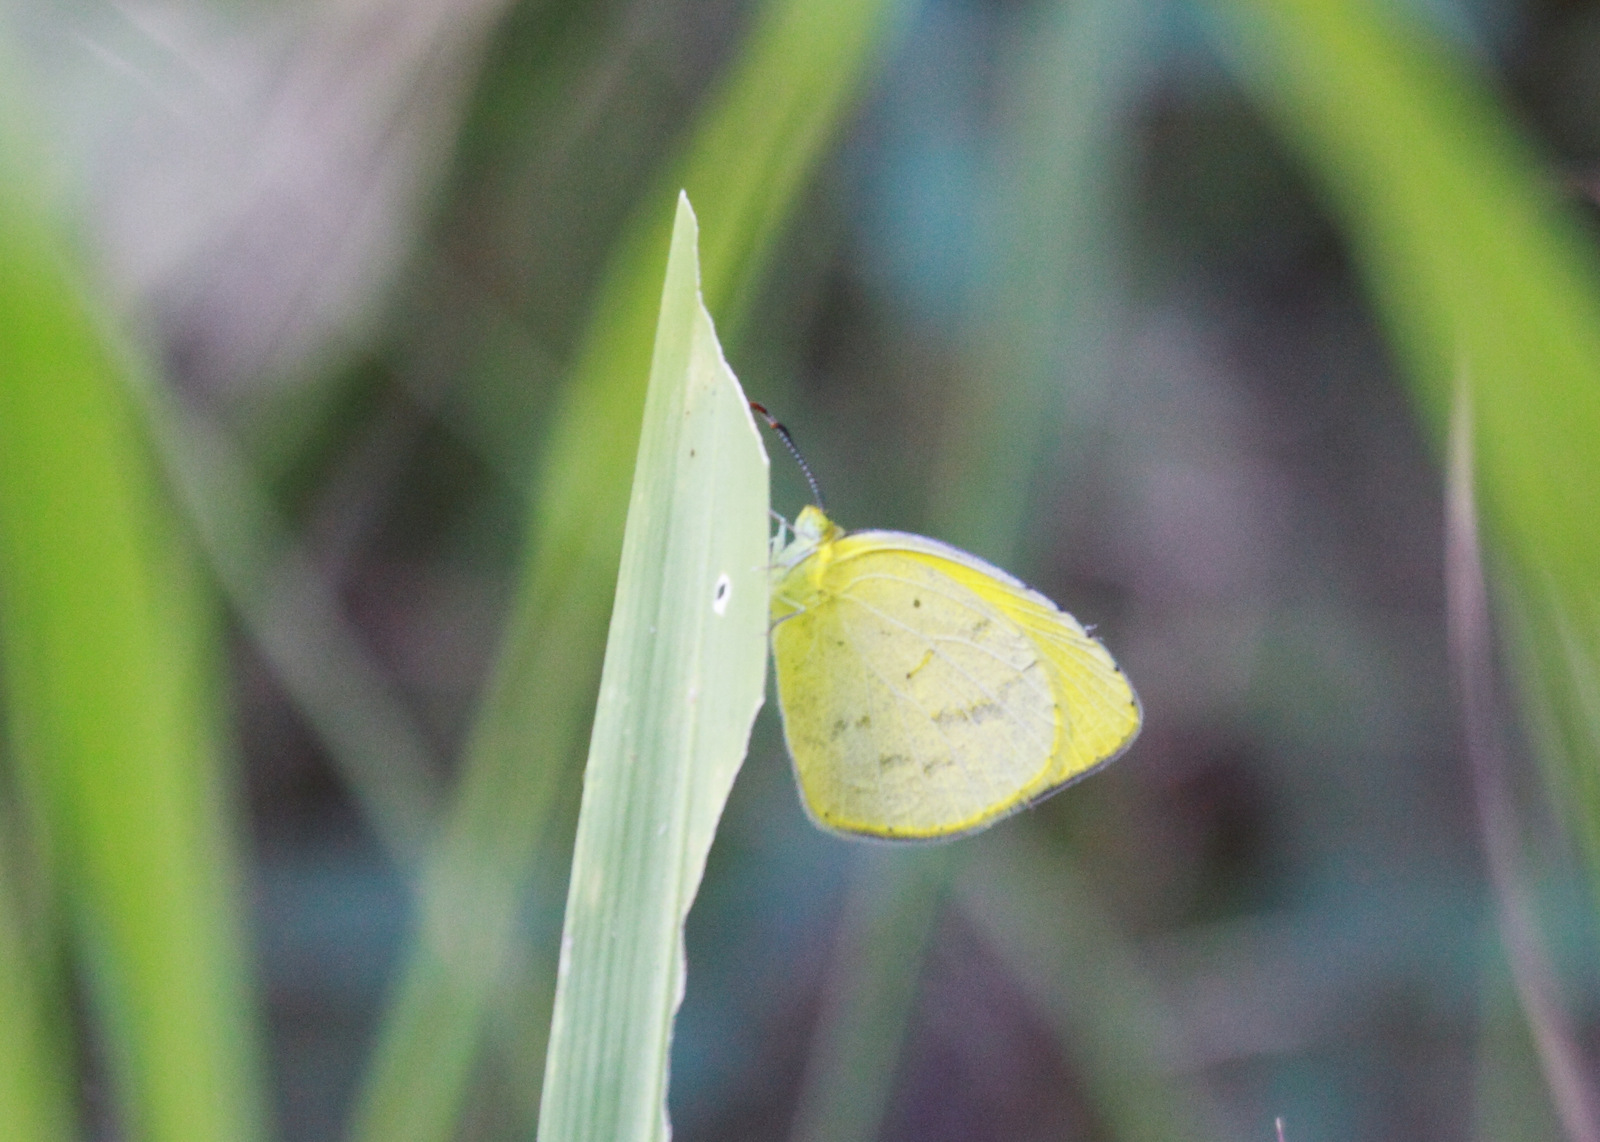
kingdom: Animalia
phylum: Arthropoda
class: Insecta
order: Lepidoptera
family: Pieridae
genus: Eurema
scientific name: Eurema brigitta
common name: Small grass yellow
